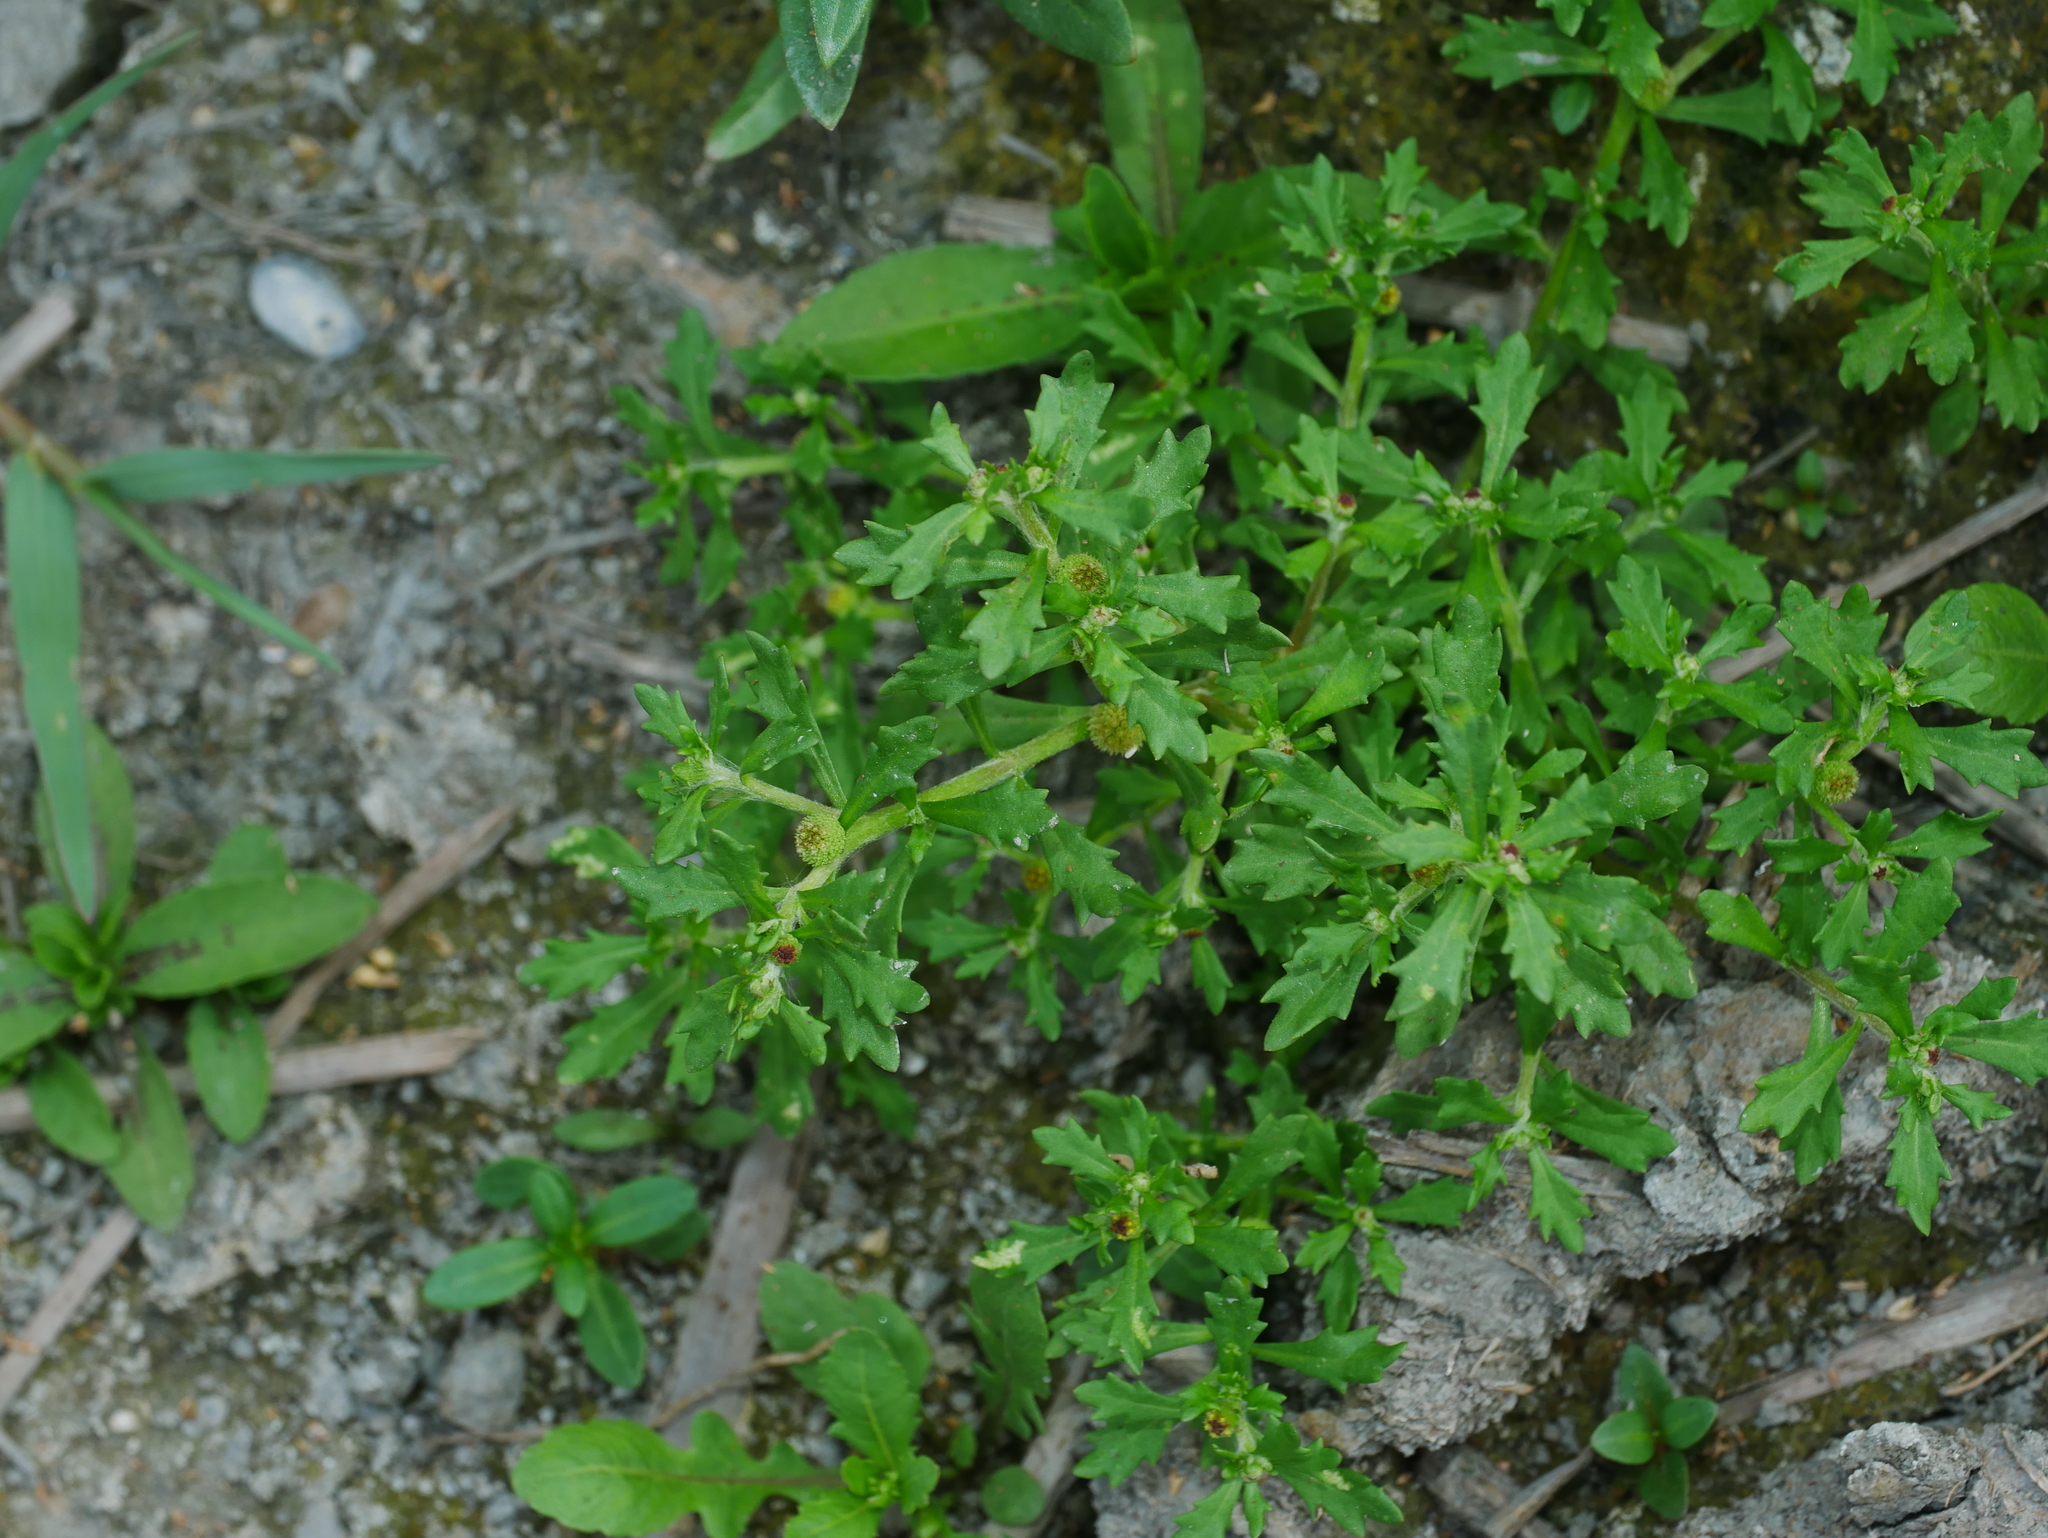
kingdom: Plantae
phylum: Tracheophyta
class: Magnoliopsida
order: Asterales
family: Asteraceae
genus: Centipeda
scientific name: Centipeda minima
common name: Spreading sneezeweed
